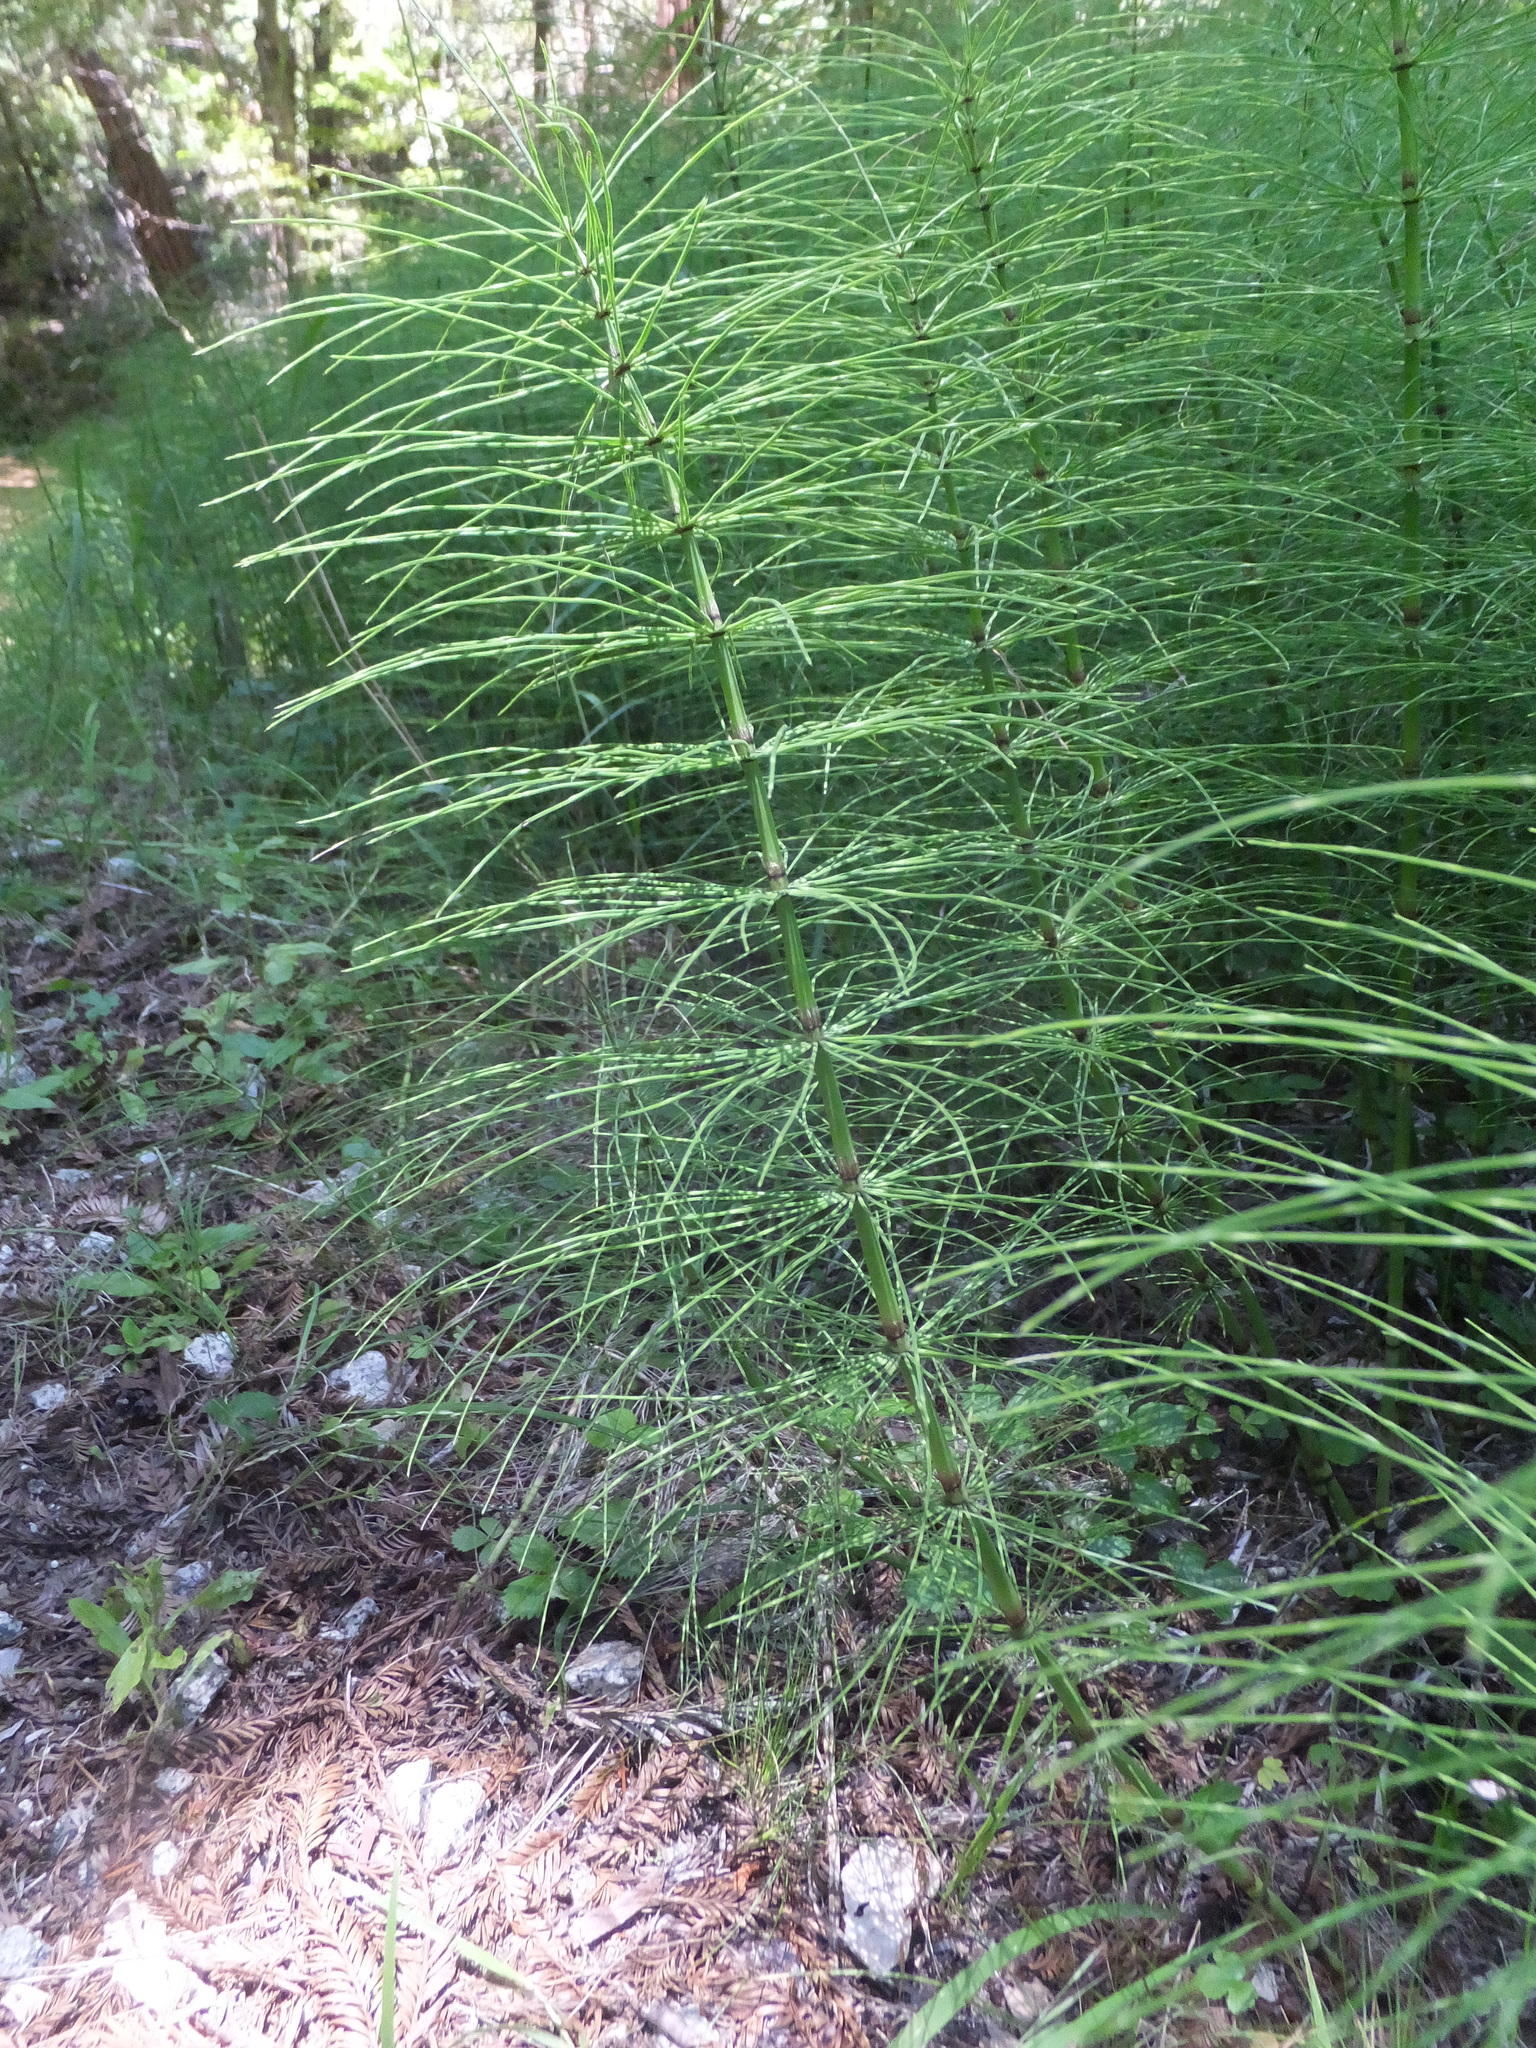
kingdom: Plantae
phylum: Tracheophyta
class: Polypodiopsida
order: Equisetales
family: Equisetaceae
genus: Equisetum
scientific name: Equisetum telmateia
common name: Great horsetail
